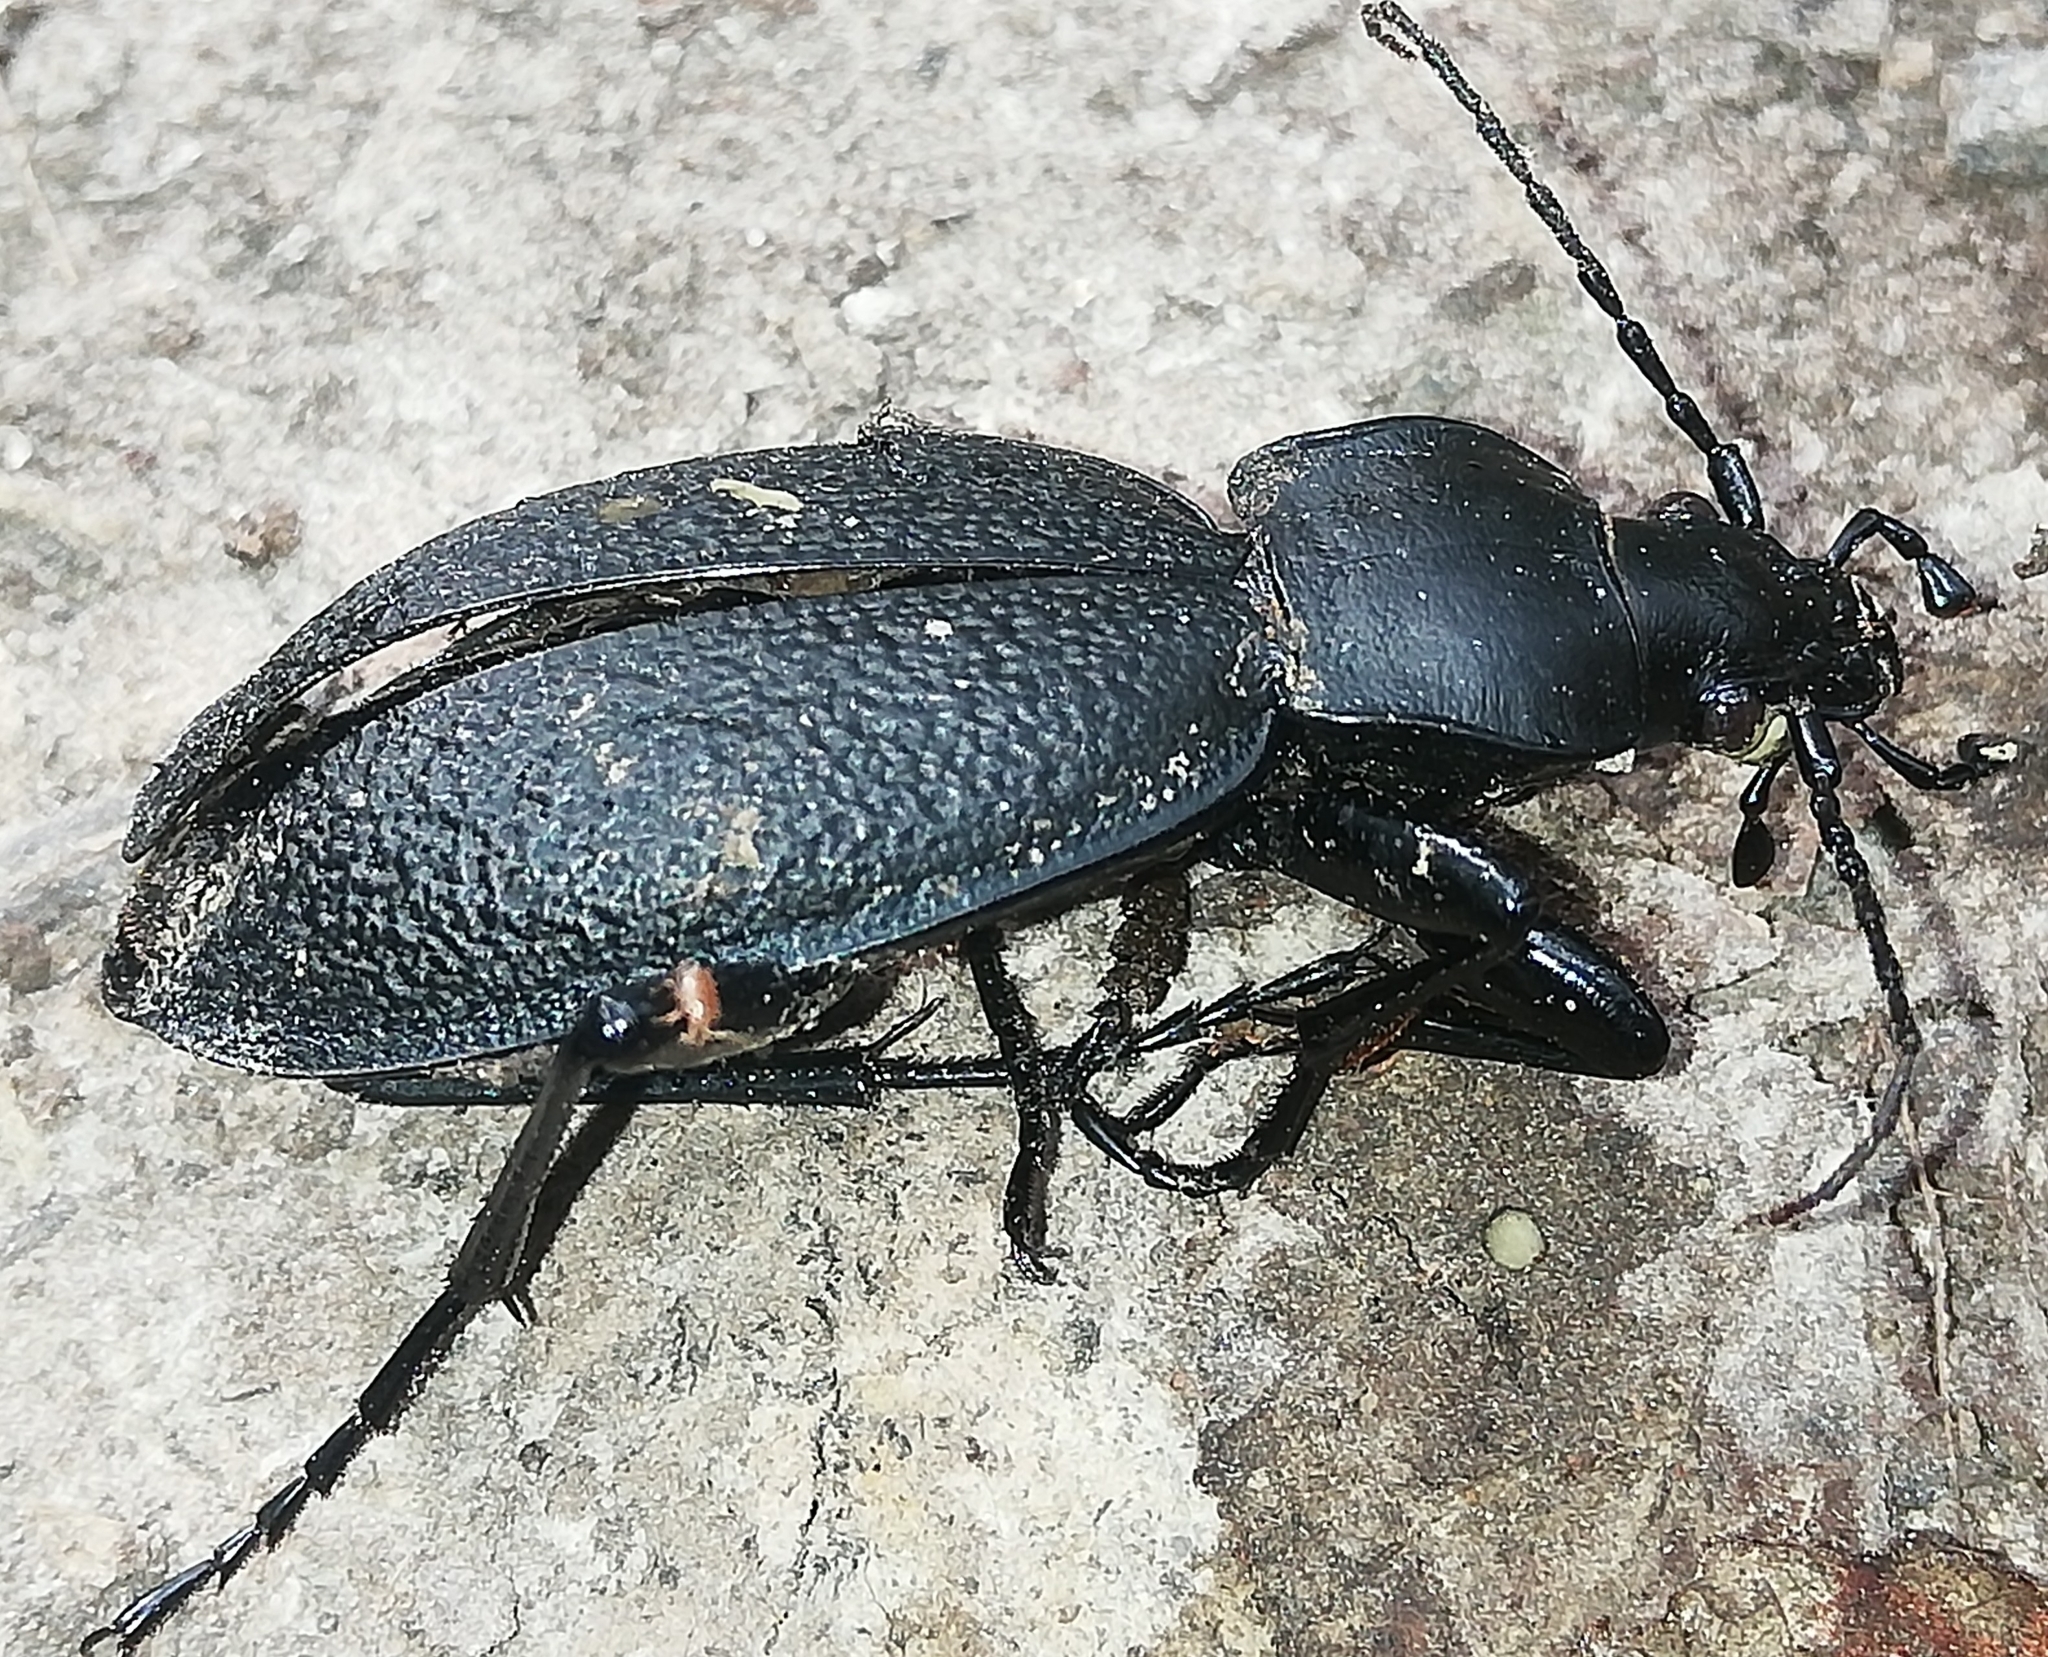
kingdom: Animalia
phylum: Arthropoda
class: Insecta
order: Coleoptera
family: Carabidae
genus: Carabus
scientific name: Carabus coriaceus
